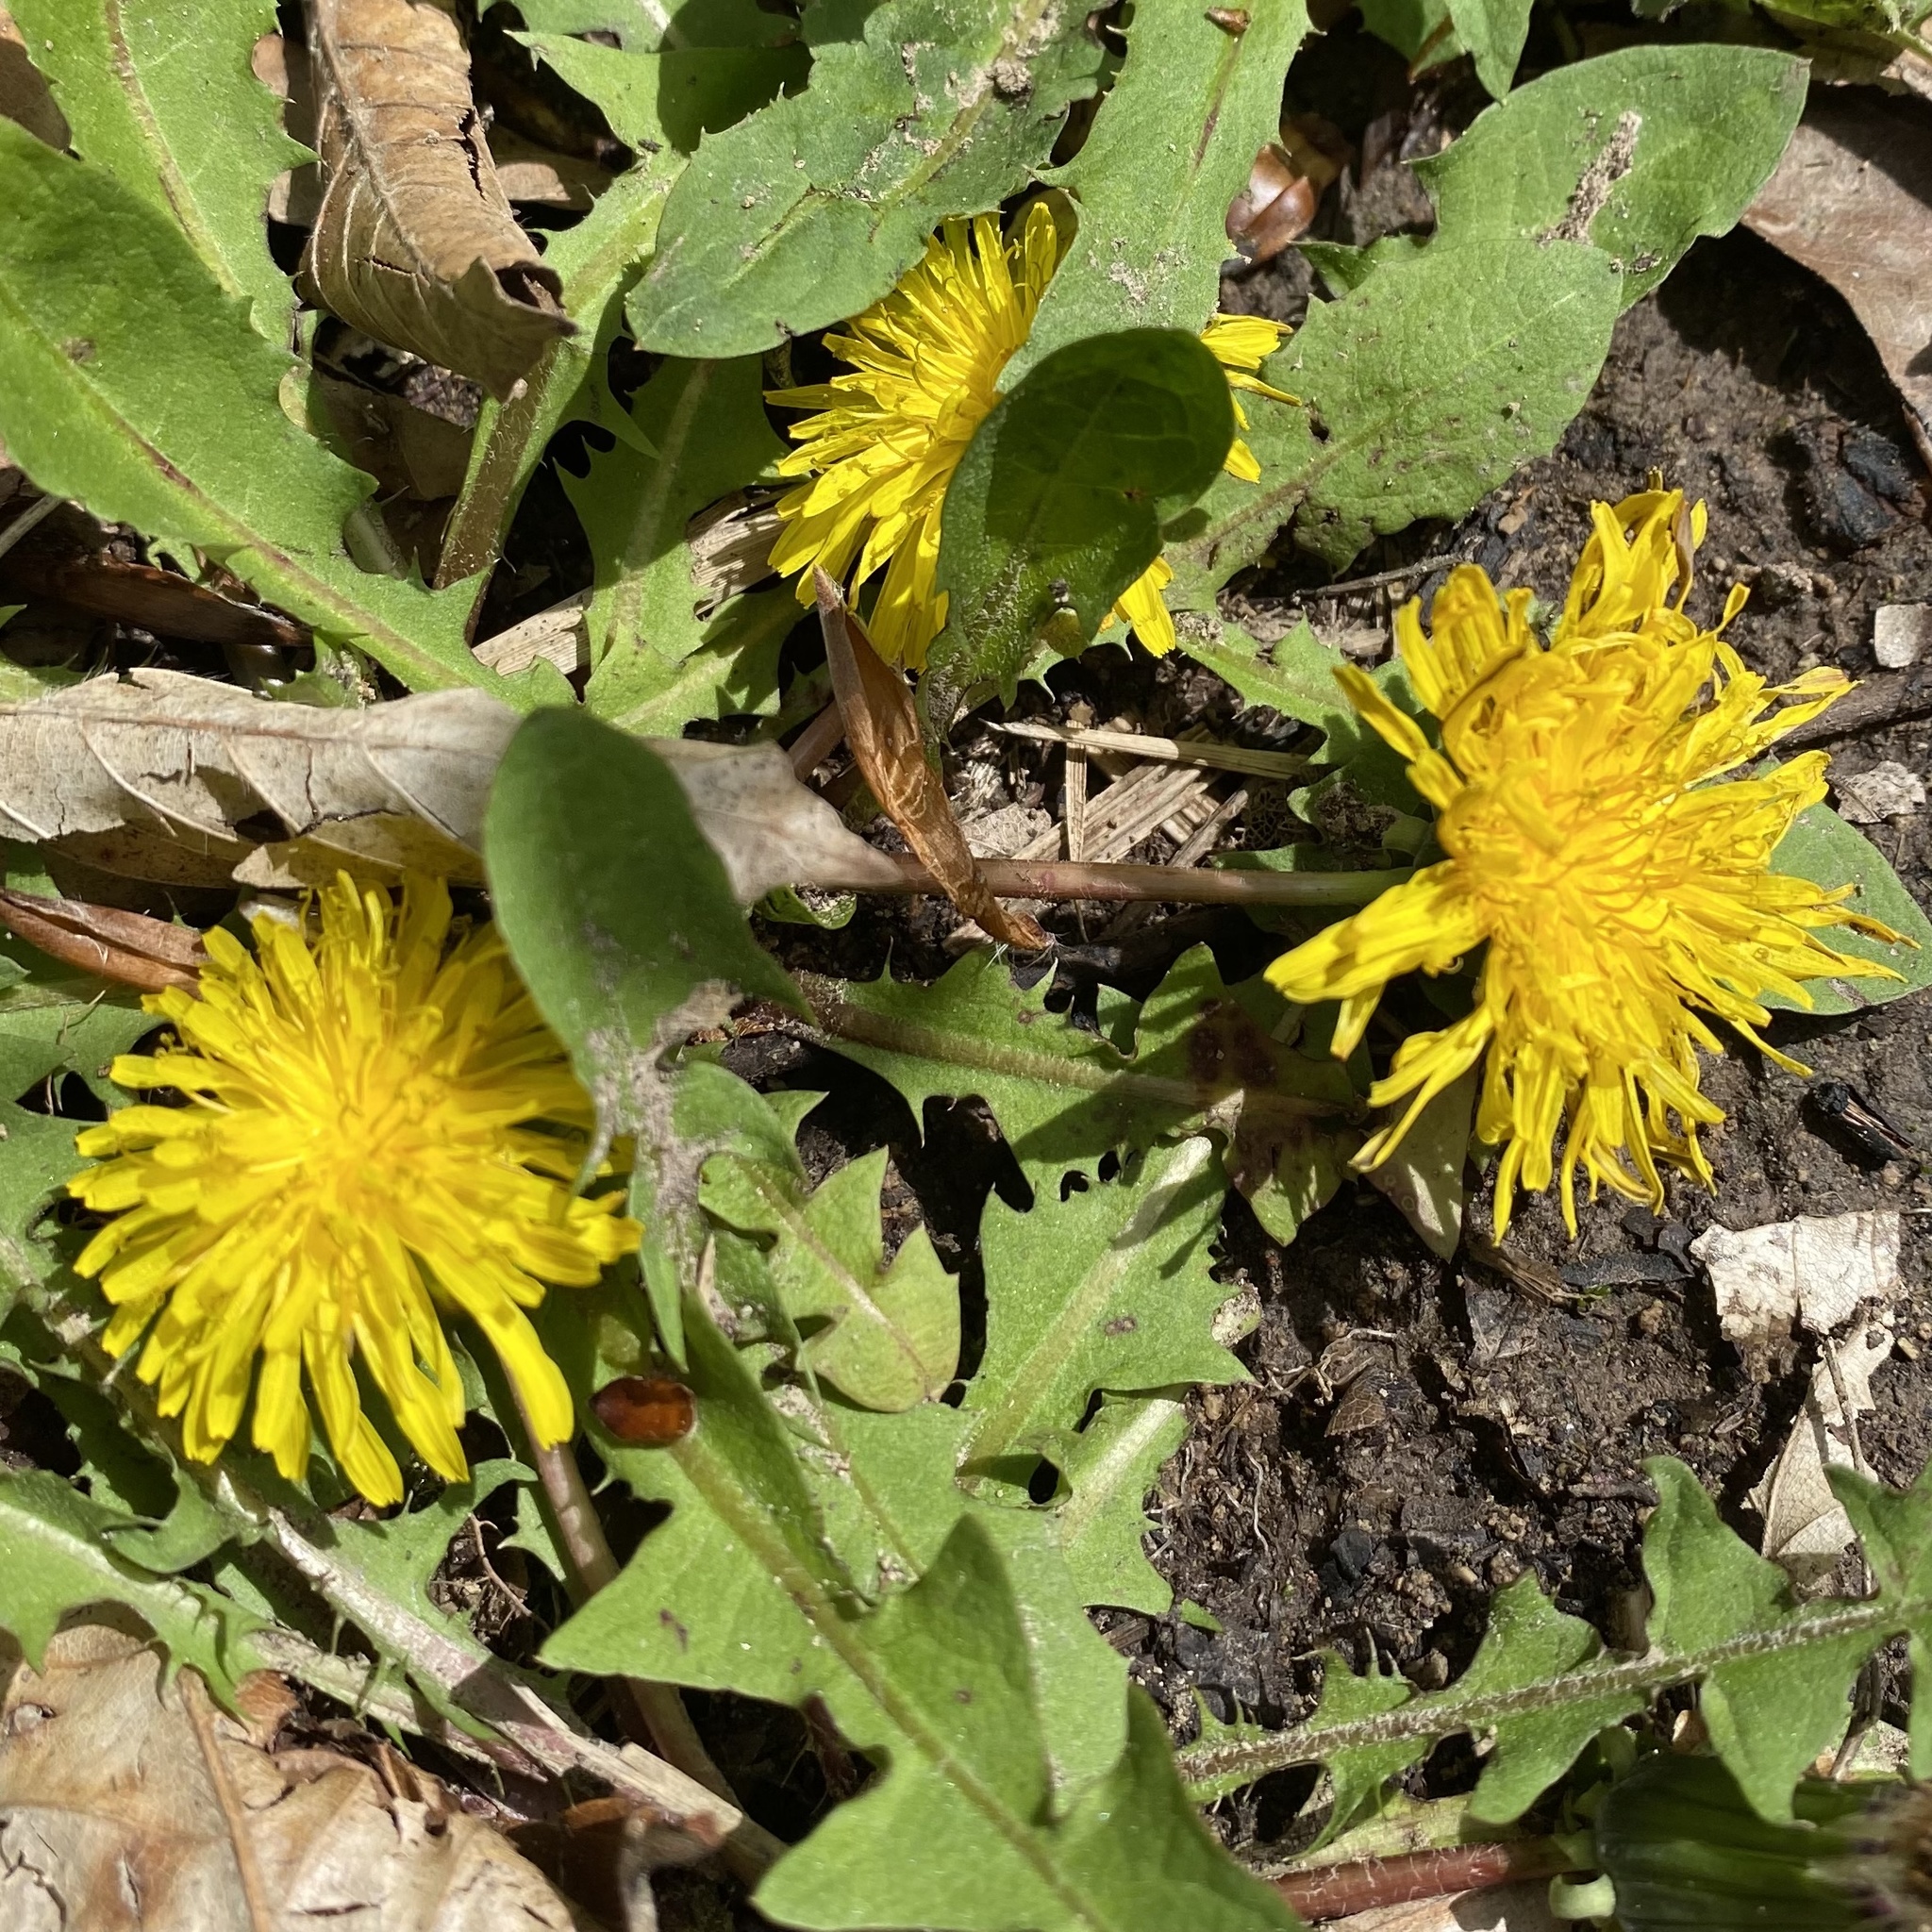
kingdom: Plantae
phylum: Tracheophyta
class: Magnoliopsida
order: Asterales
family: Asteraceae
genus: Taraxacum
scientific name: Taraxacum officinale
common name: Common dandelion
